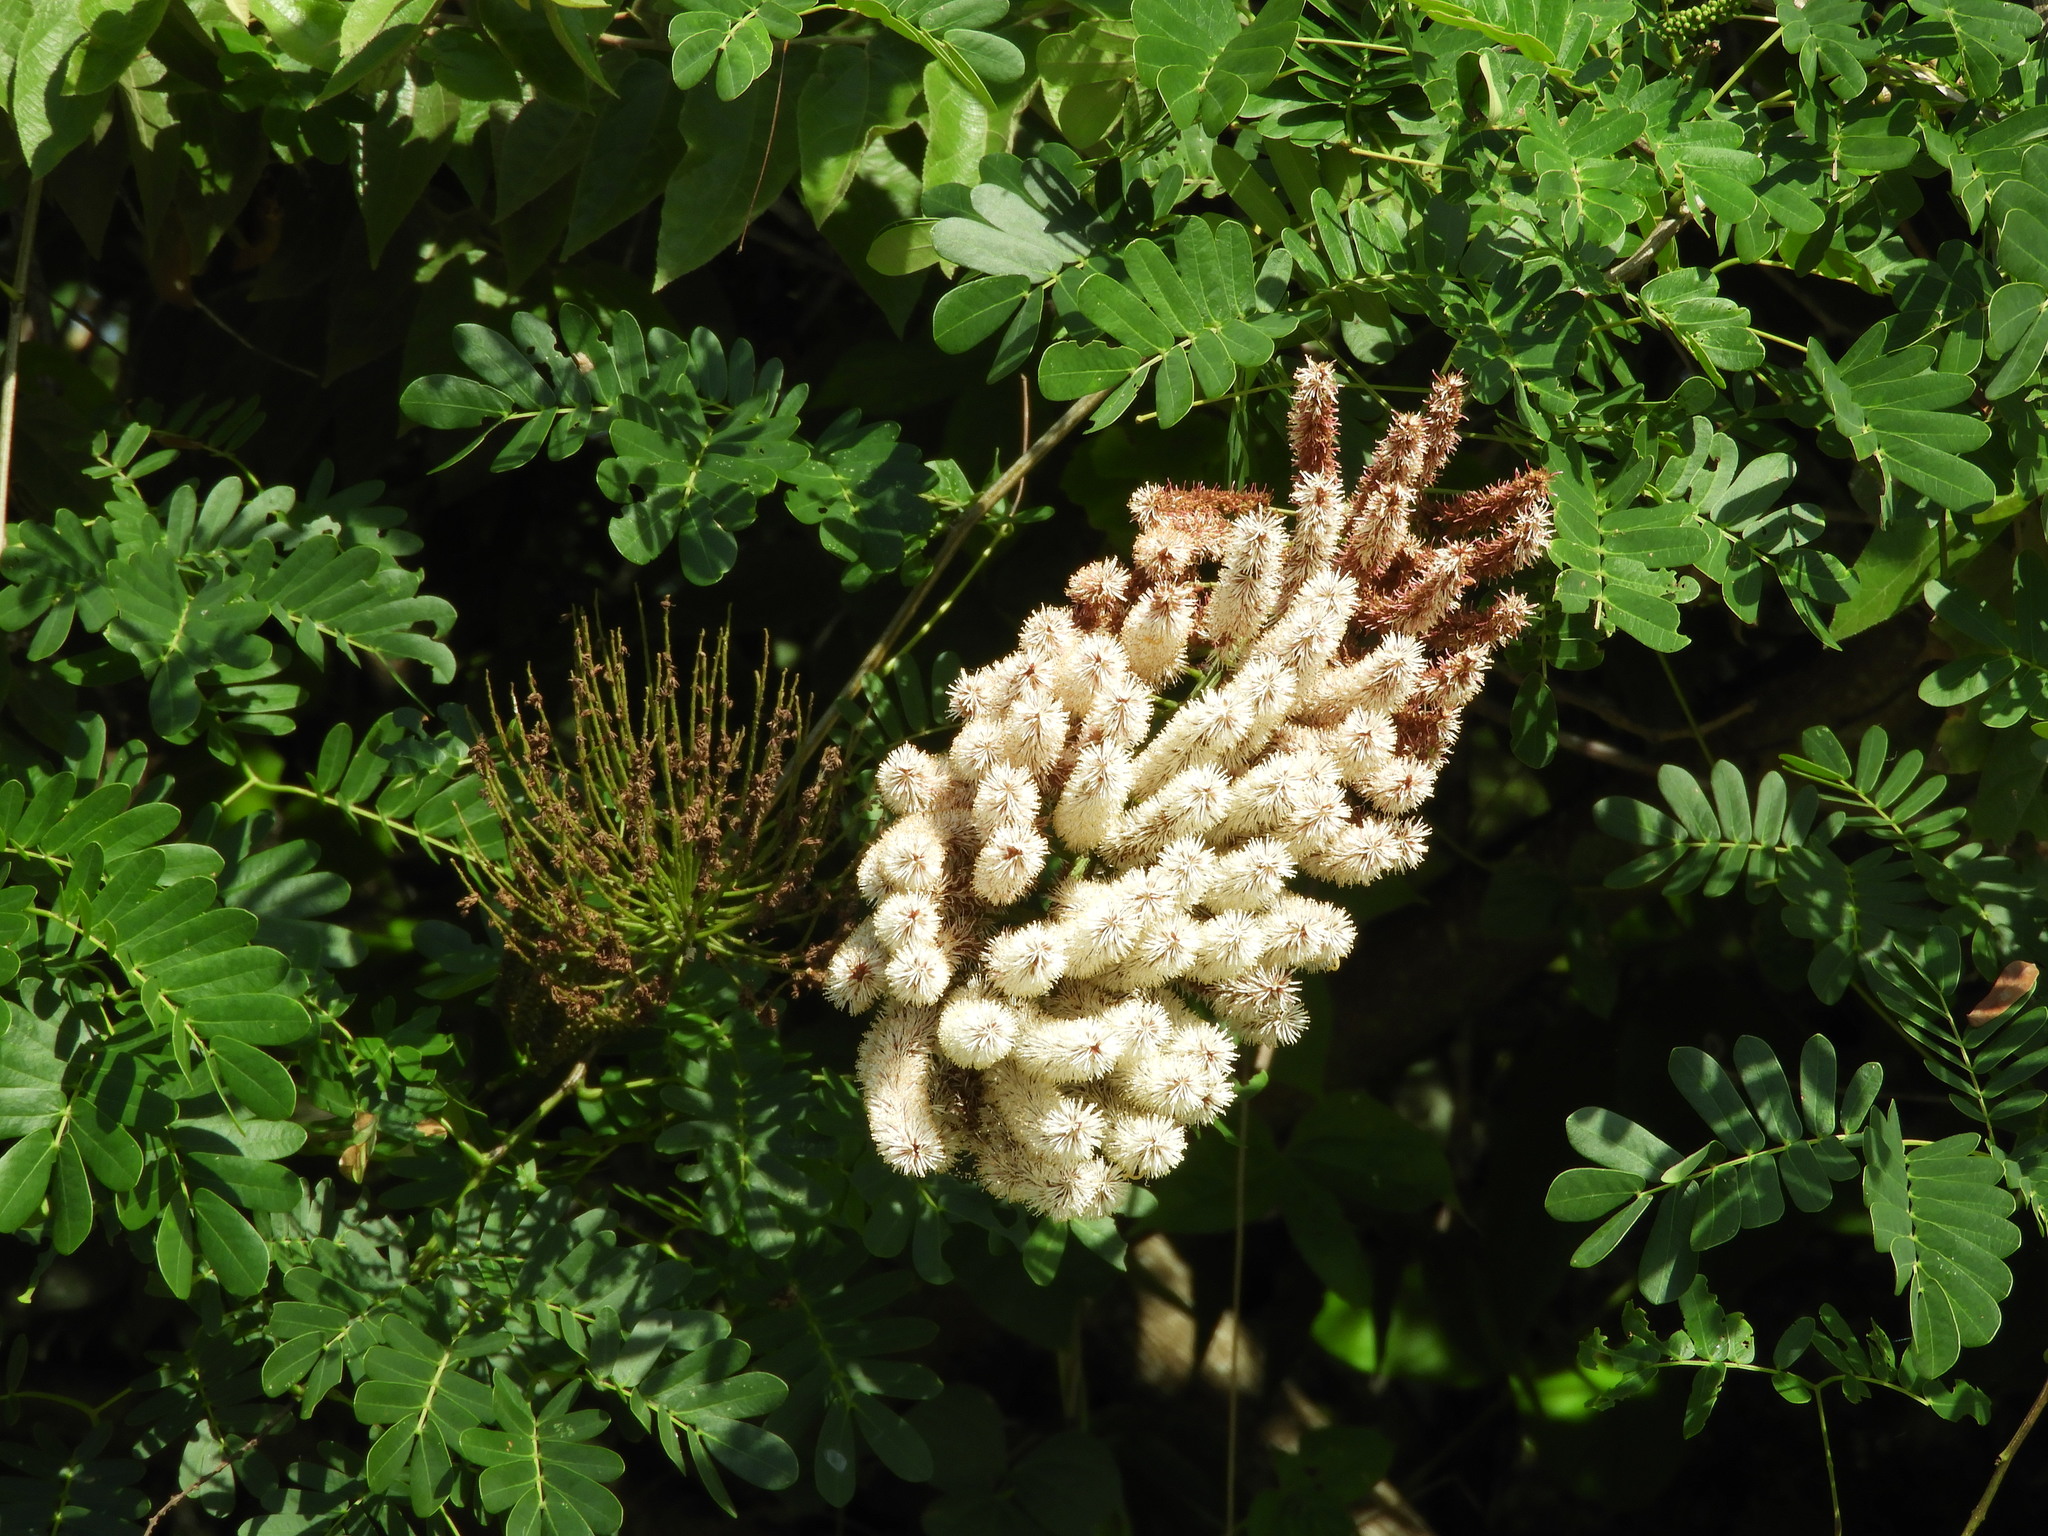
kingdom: Plantae
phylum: Tracheophyta
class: Magnoliopsida
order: Fabales
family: Fabaceae
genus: Entada
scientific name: Entada polystachya
